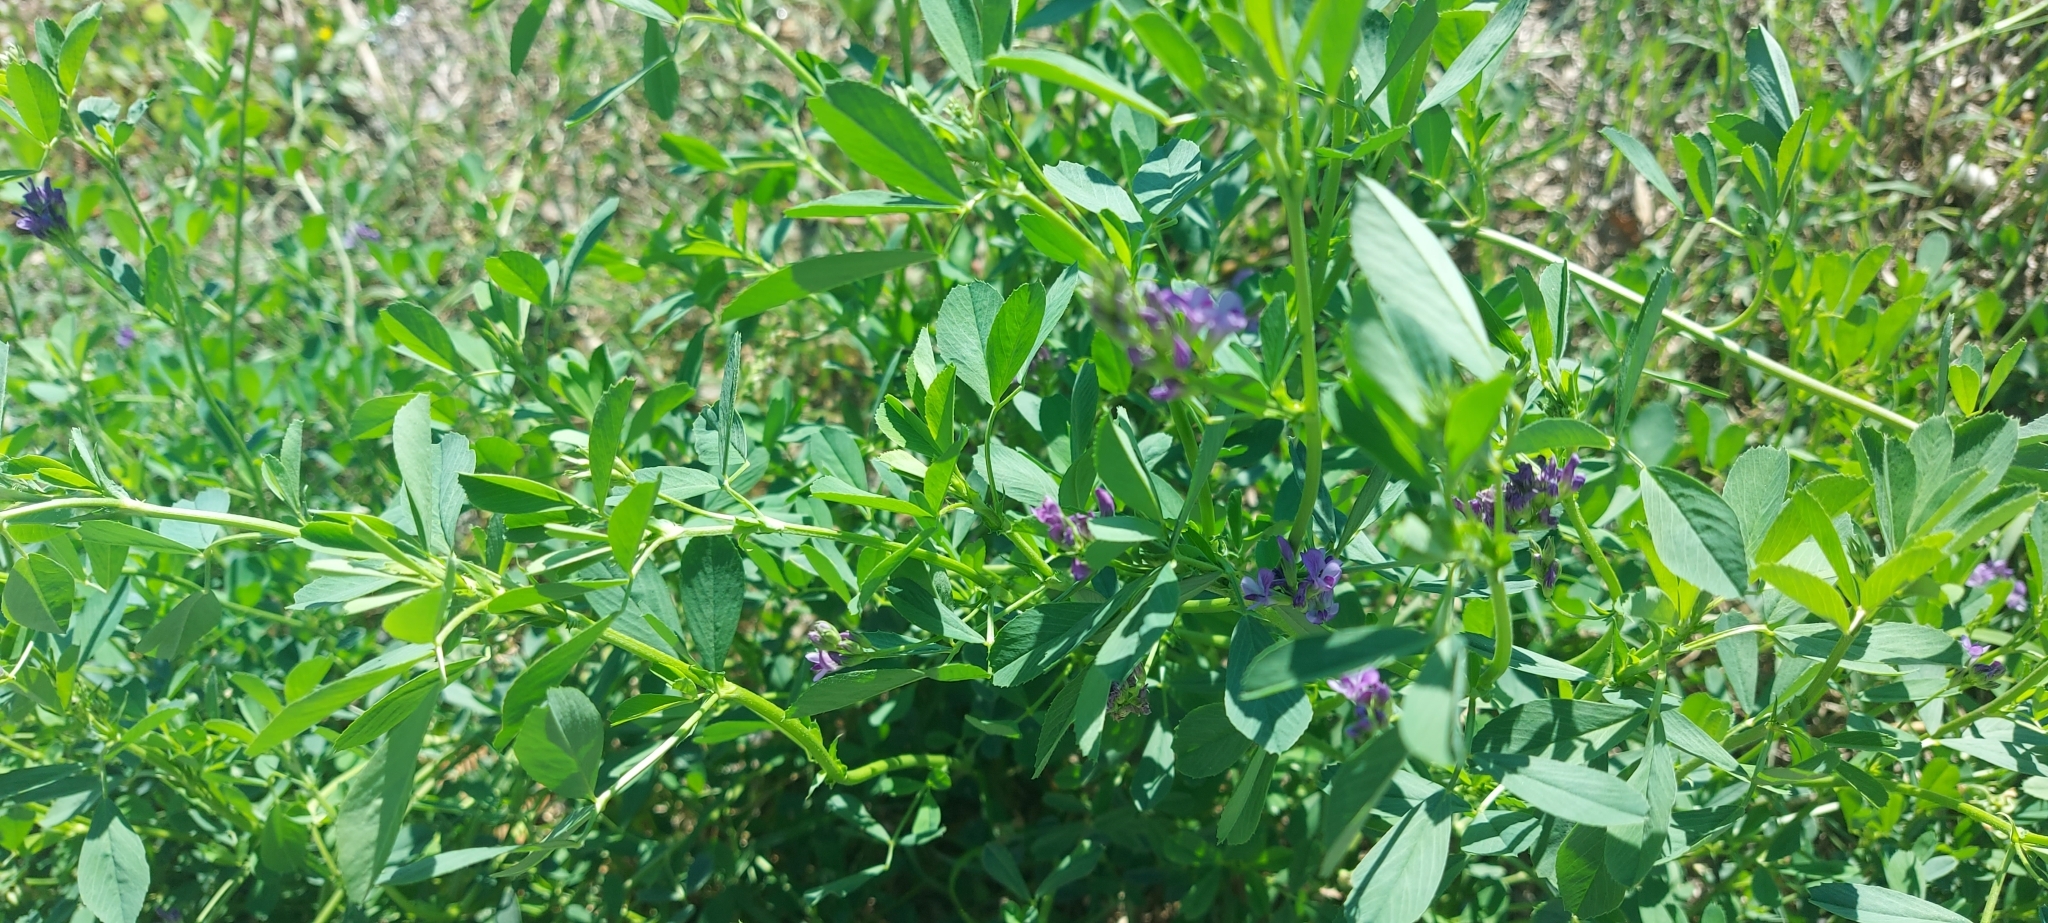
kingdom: Plantae
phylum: Tracheophyta
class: Magnoliopsida
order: Fabales
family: Fabaceae
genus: Medicago
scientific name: Medicago sativa
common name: Alfalfa
